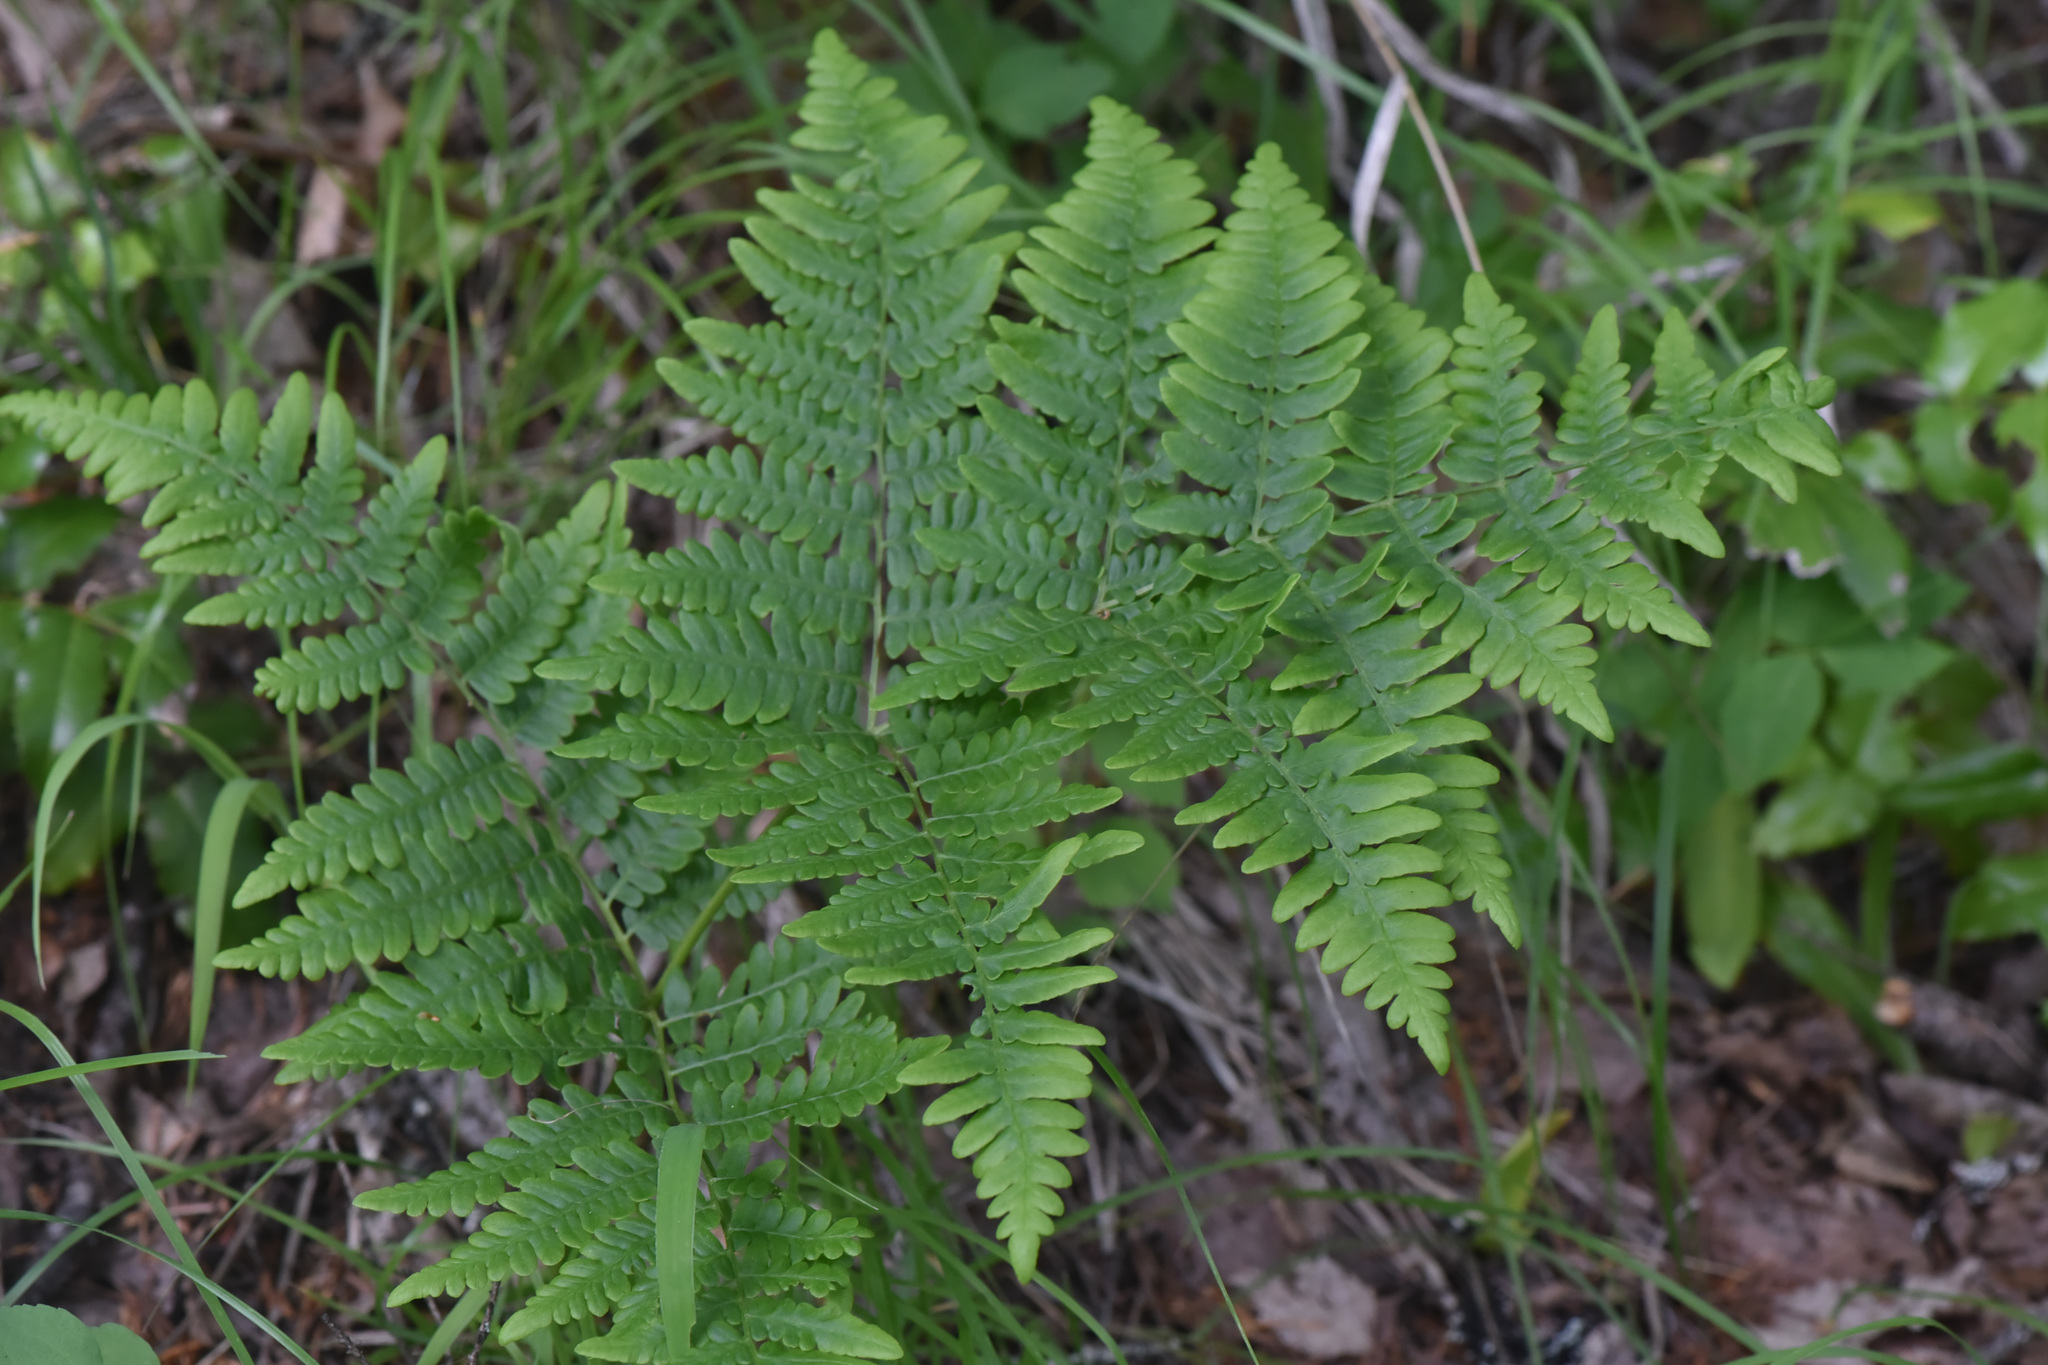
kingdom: Plantae
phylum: Tracheophyta
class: Polypodiopsida
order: Polypodiales
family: Dennstaedtiaceae
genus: Pteridium
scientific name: Pteridium aquilinum
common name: Bracken
